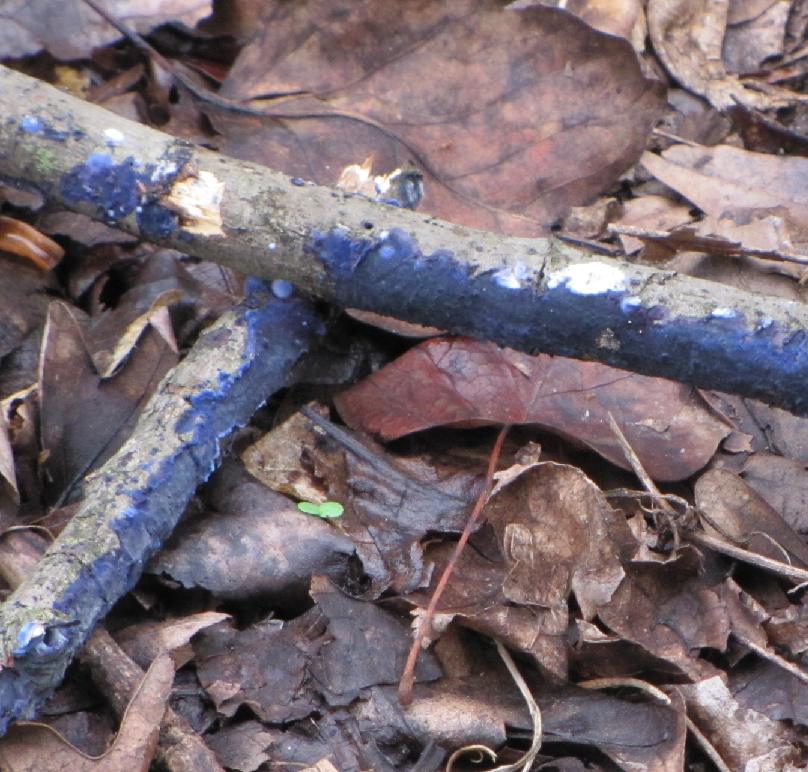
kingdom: Fungi
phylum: Basidiomycota
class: Agaricomycetes
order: Polyporales
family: Phanerochaetaceae
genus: Terana
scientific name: Terana coerulea
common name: Cobalt crust
